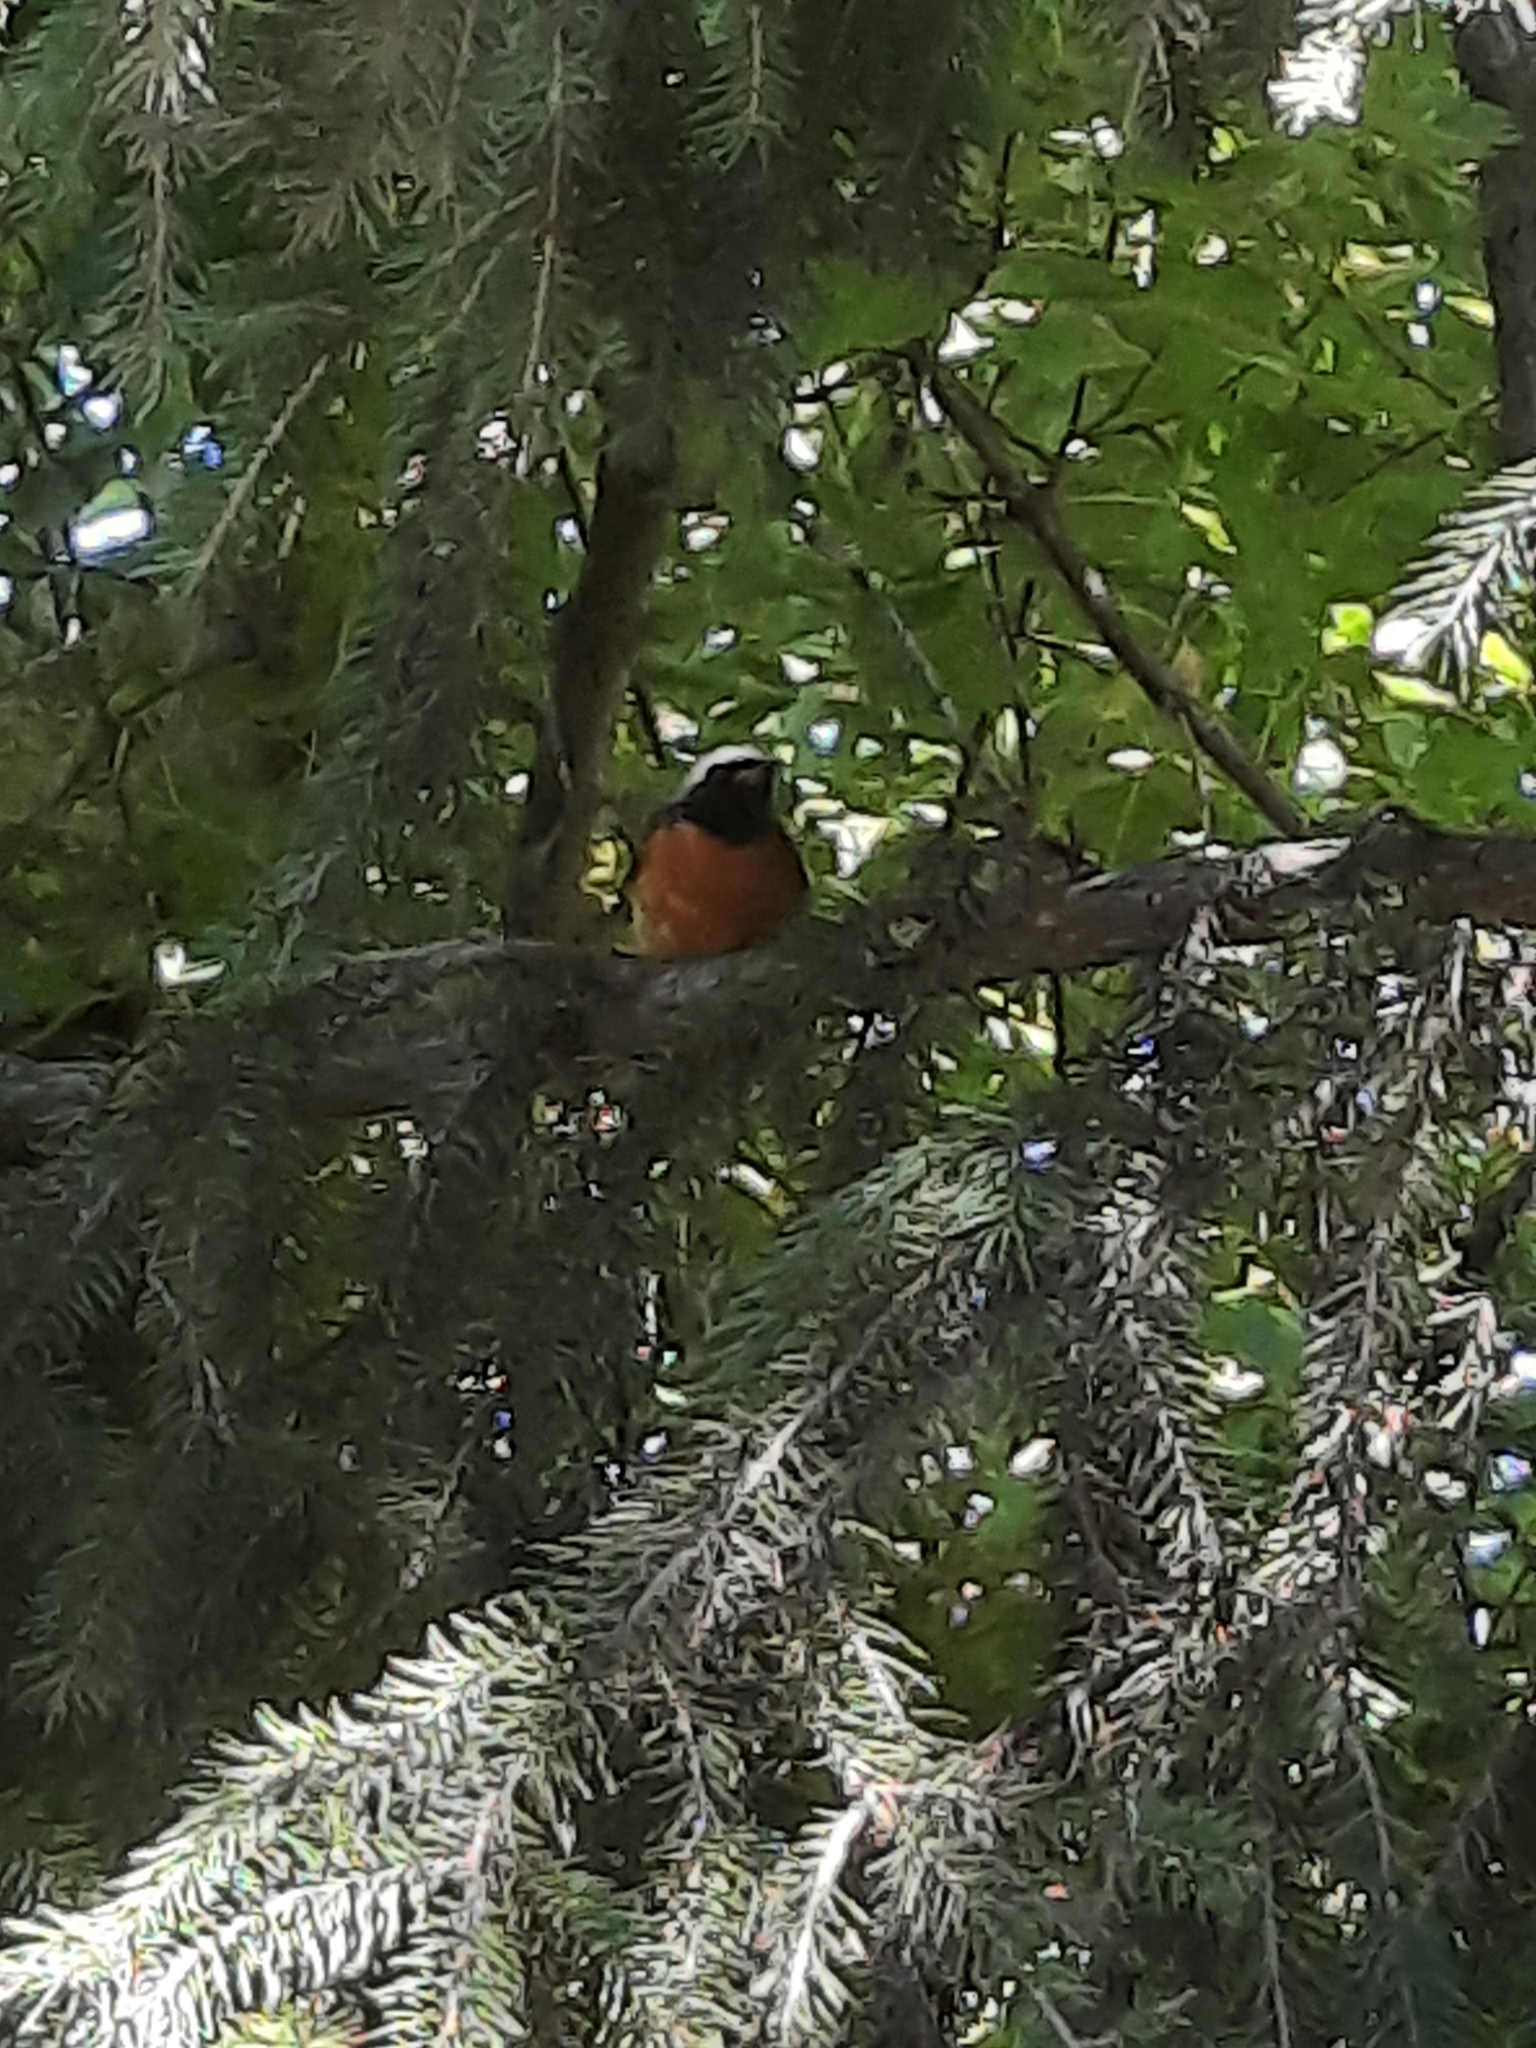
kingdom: Animalia
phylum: Chordata
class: Aves
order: Passeriformes
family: Muscicapidae
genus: Phoenicurus
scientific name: Phoenicurus phoenicurus
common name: Common redstart
